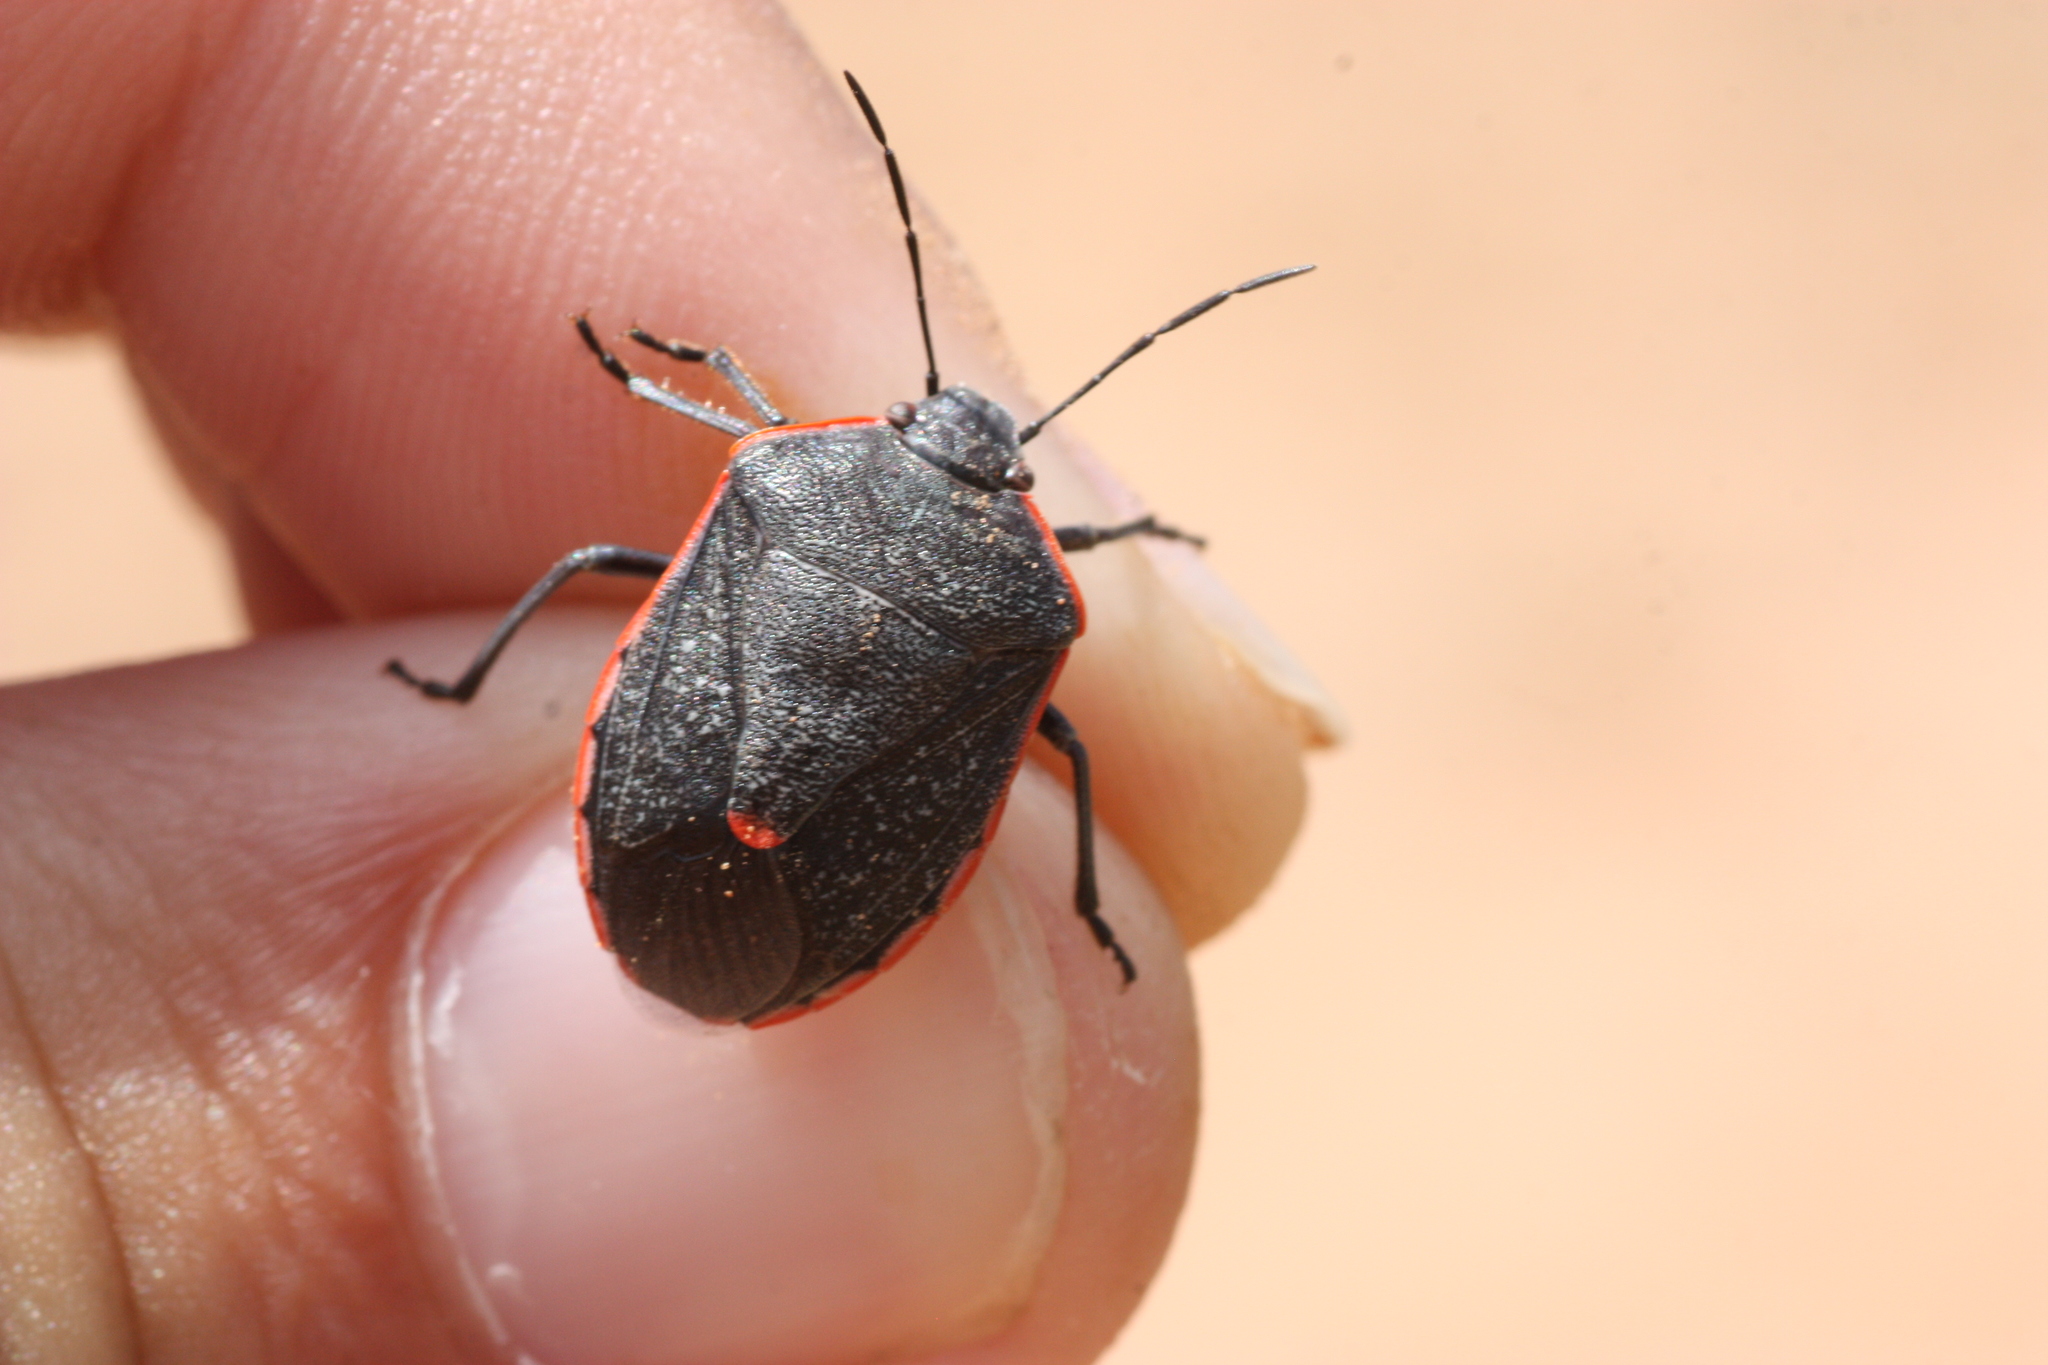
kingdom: Animalia
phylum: Arthropoda
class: Insecta
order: Hemiptera
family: Pentatomidae
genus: Chlorochroa
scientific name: Chlorochroa ligata
